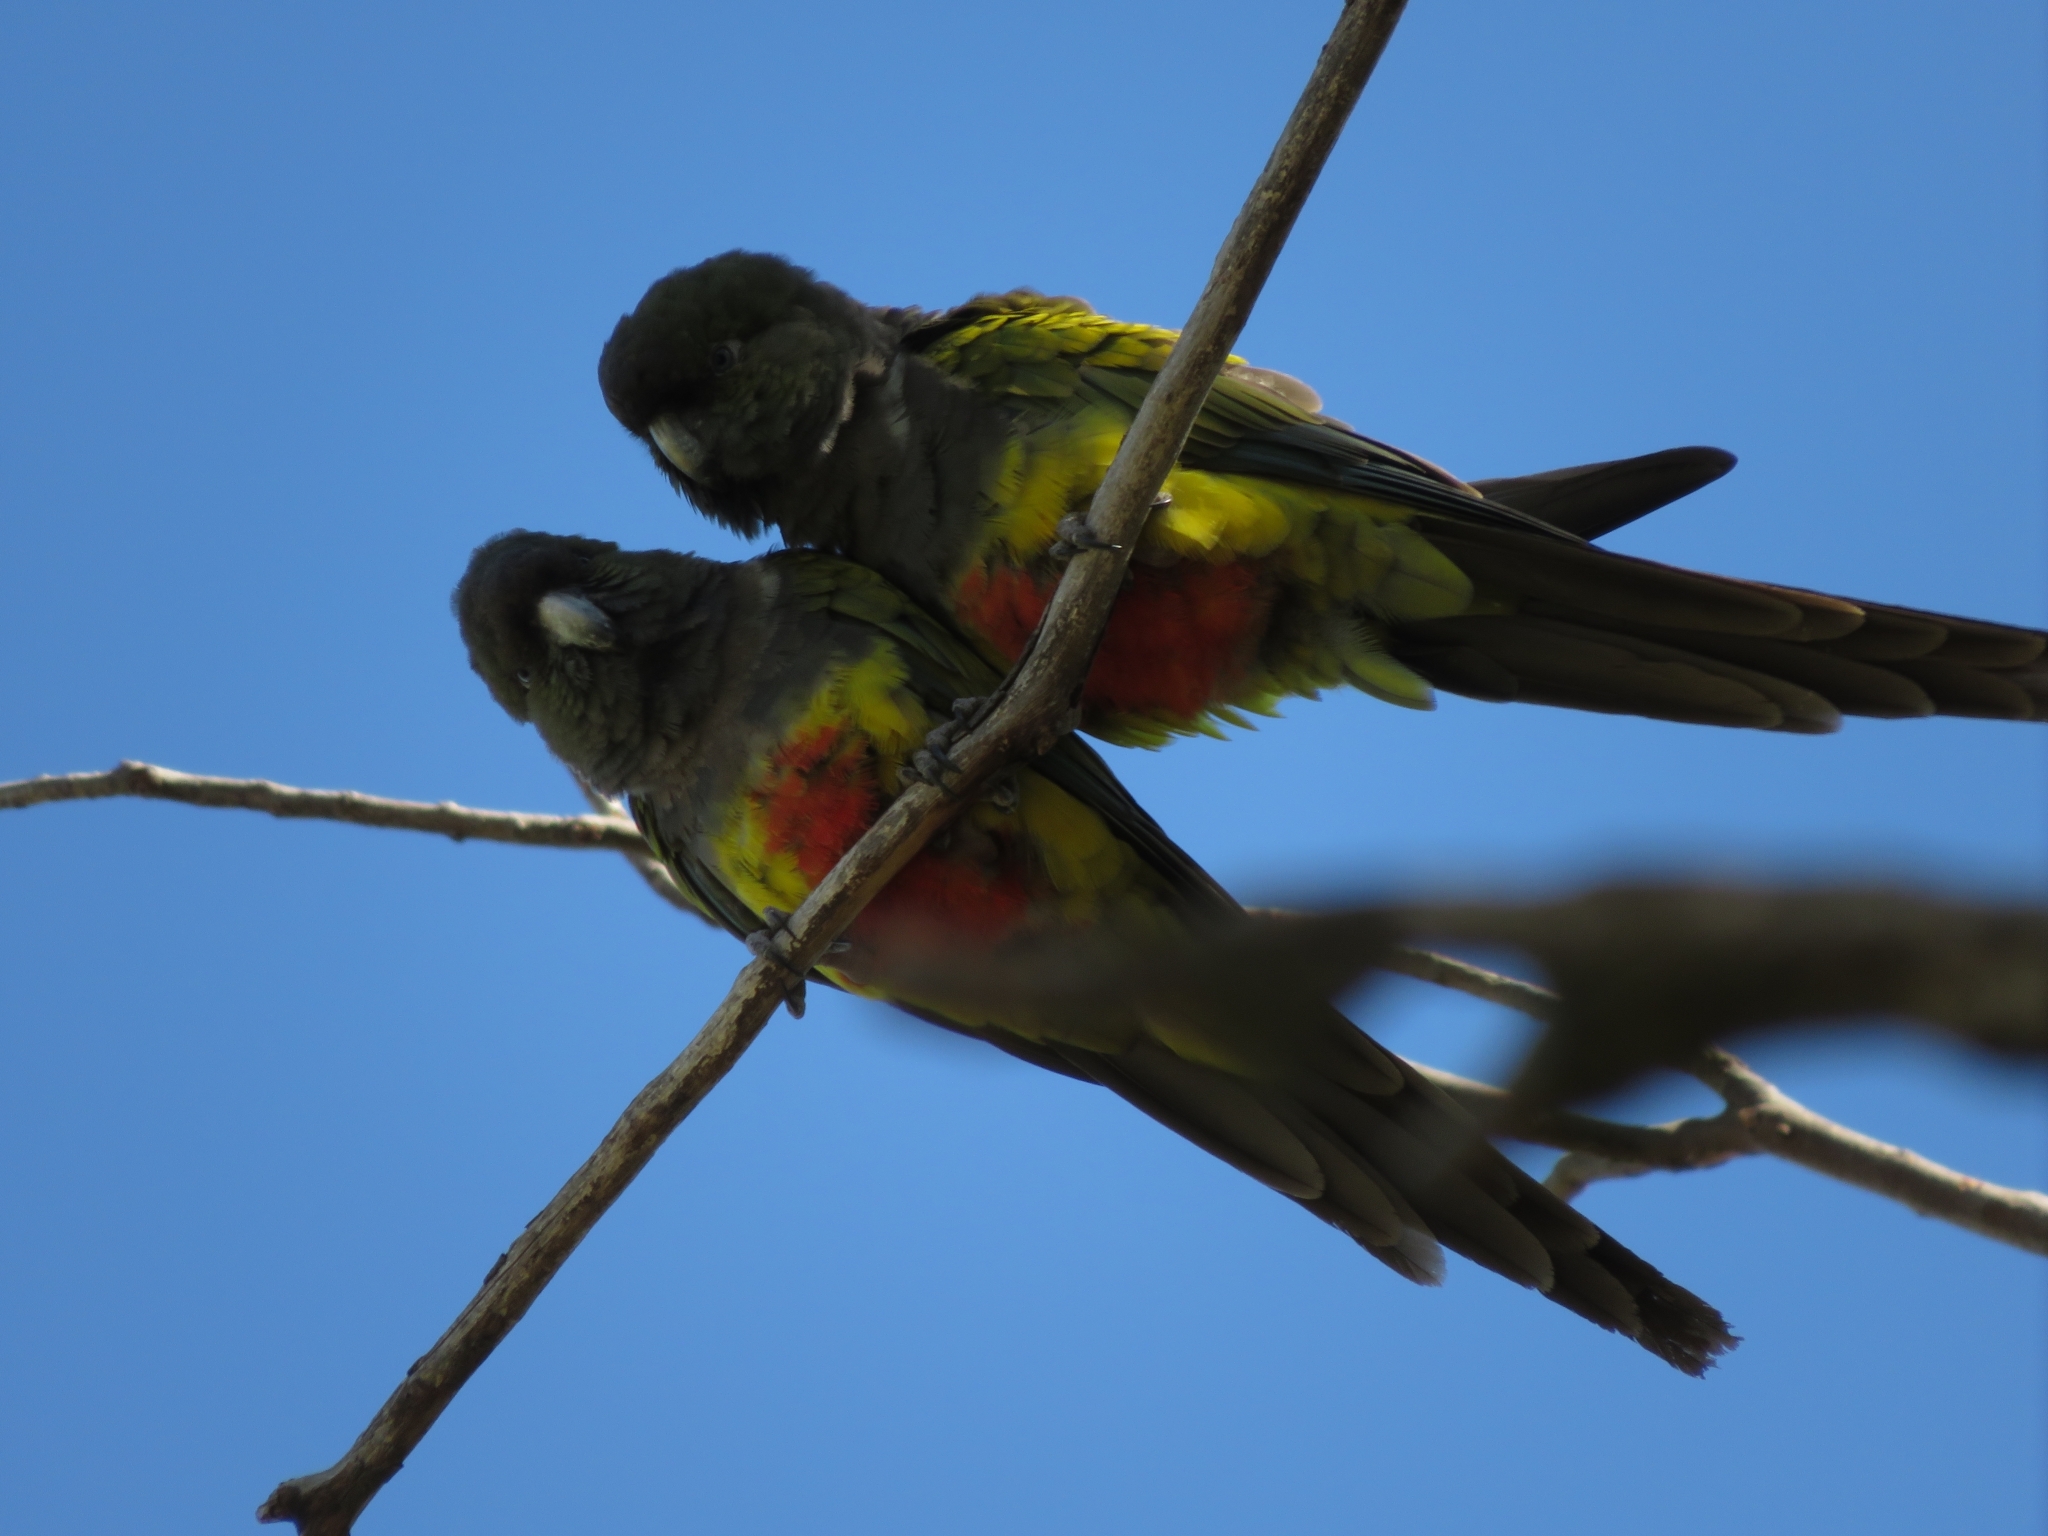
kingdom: Animalia
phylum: Chordata
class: Aves
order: Psittaciformes
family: Psittacidae
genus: Cyanoliseus
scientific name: Cyanoliseus patagonus
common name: Burrowing parrot
